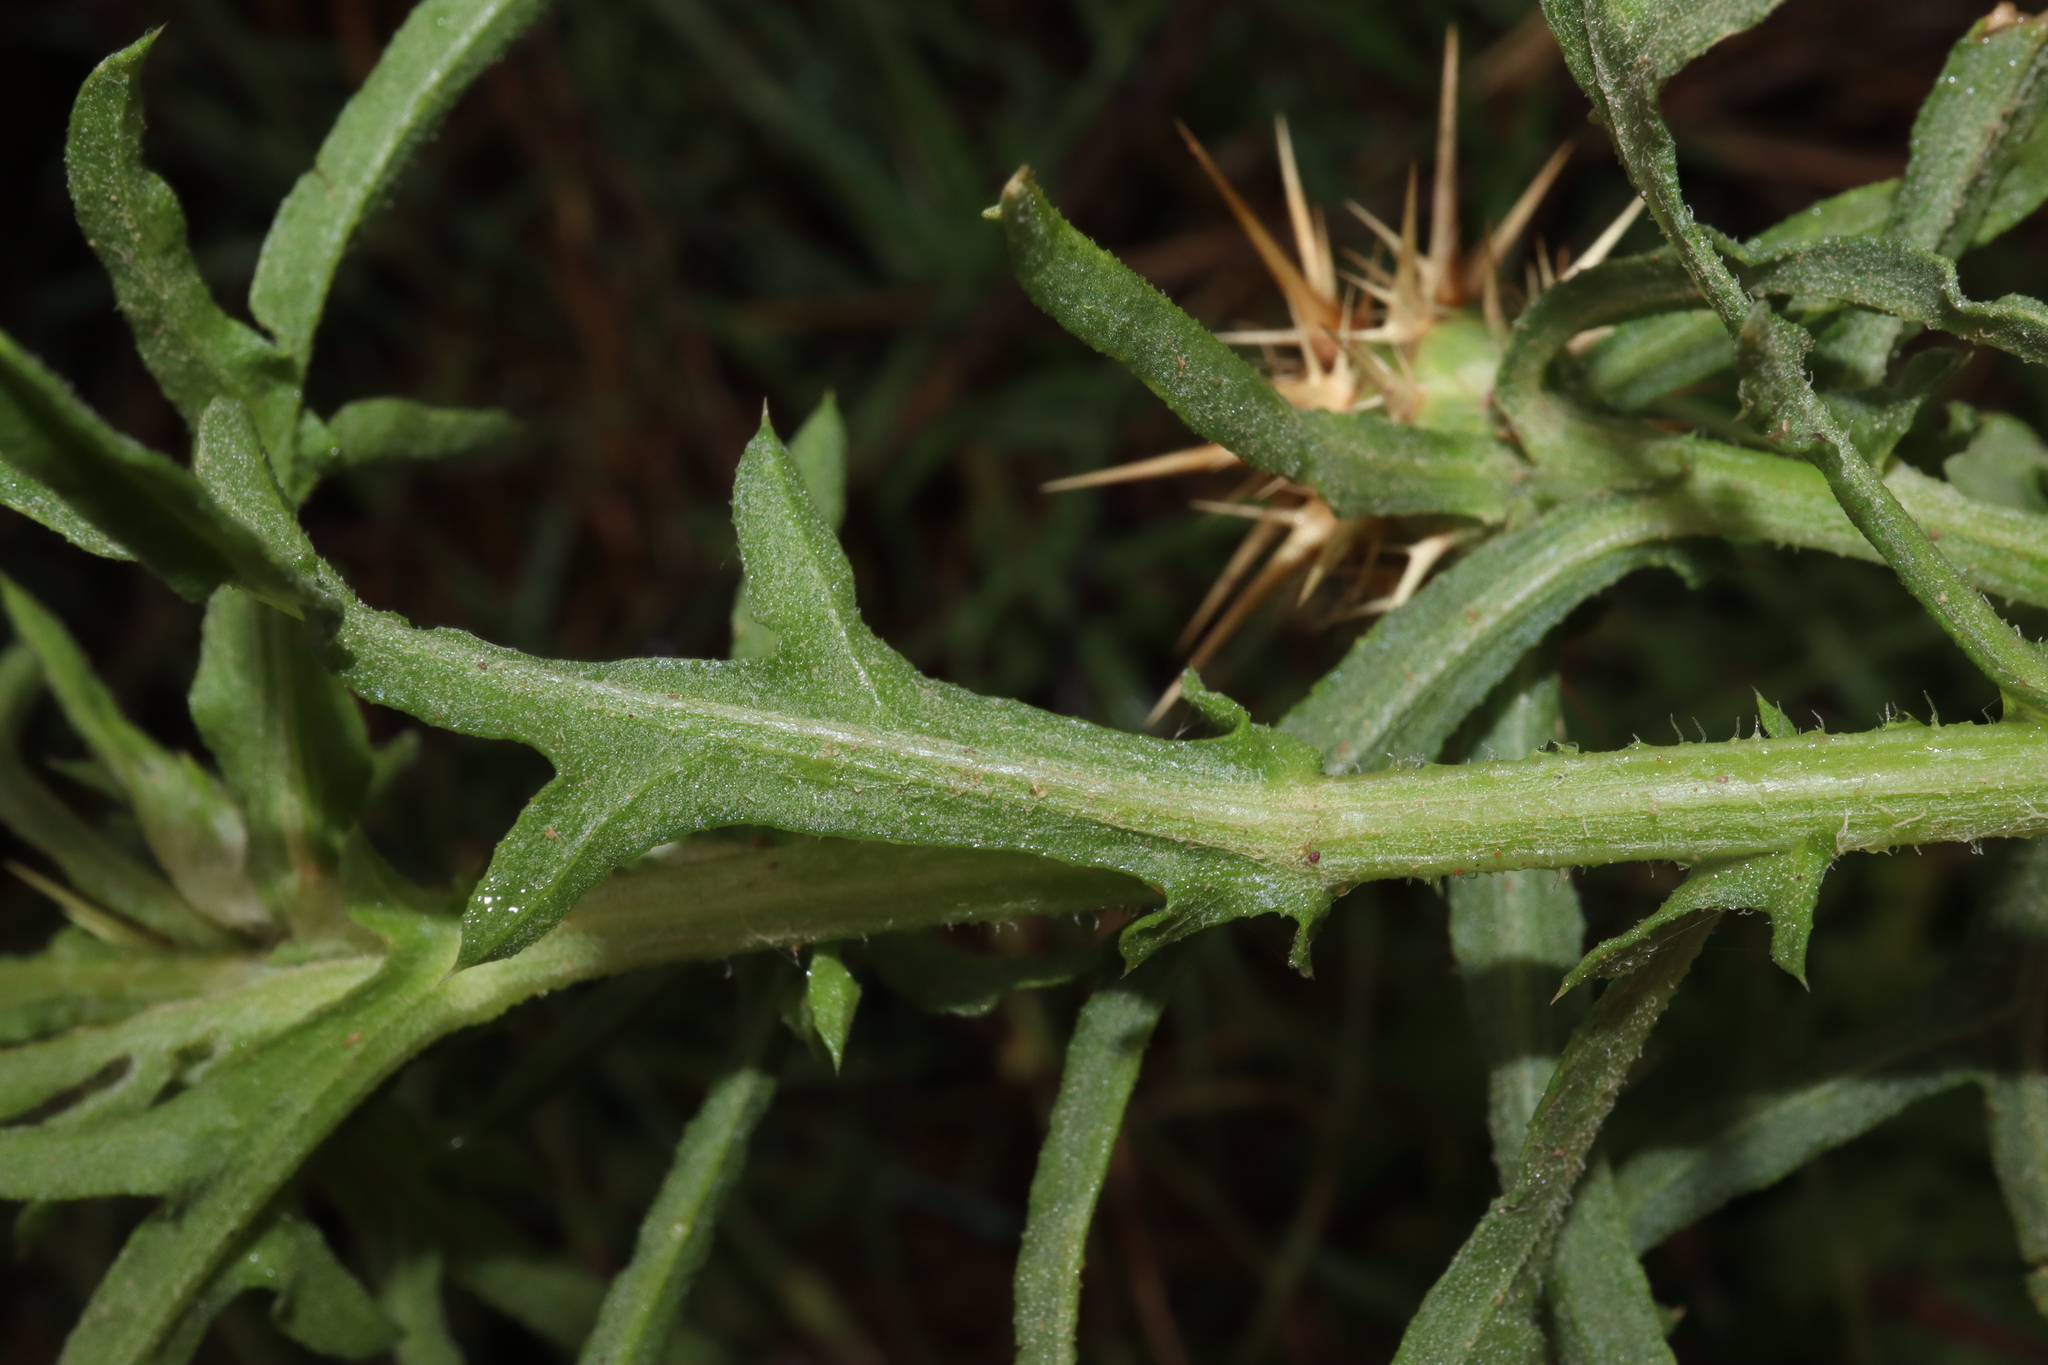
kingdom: Plantae
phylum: Tracheophyta
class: Magnoliopsida
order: Asterales
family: Asteraceae
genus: Centaurea
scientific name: Centaurea calcitrapa
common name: Red star-thistle
